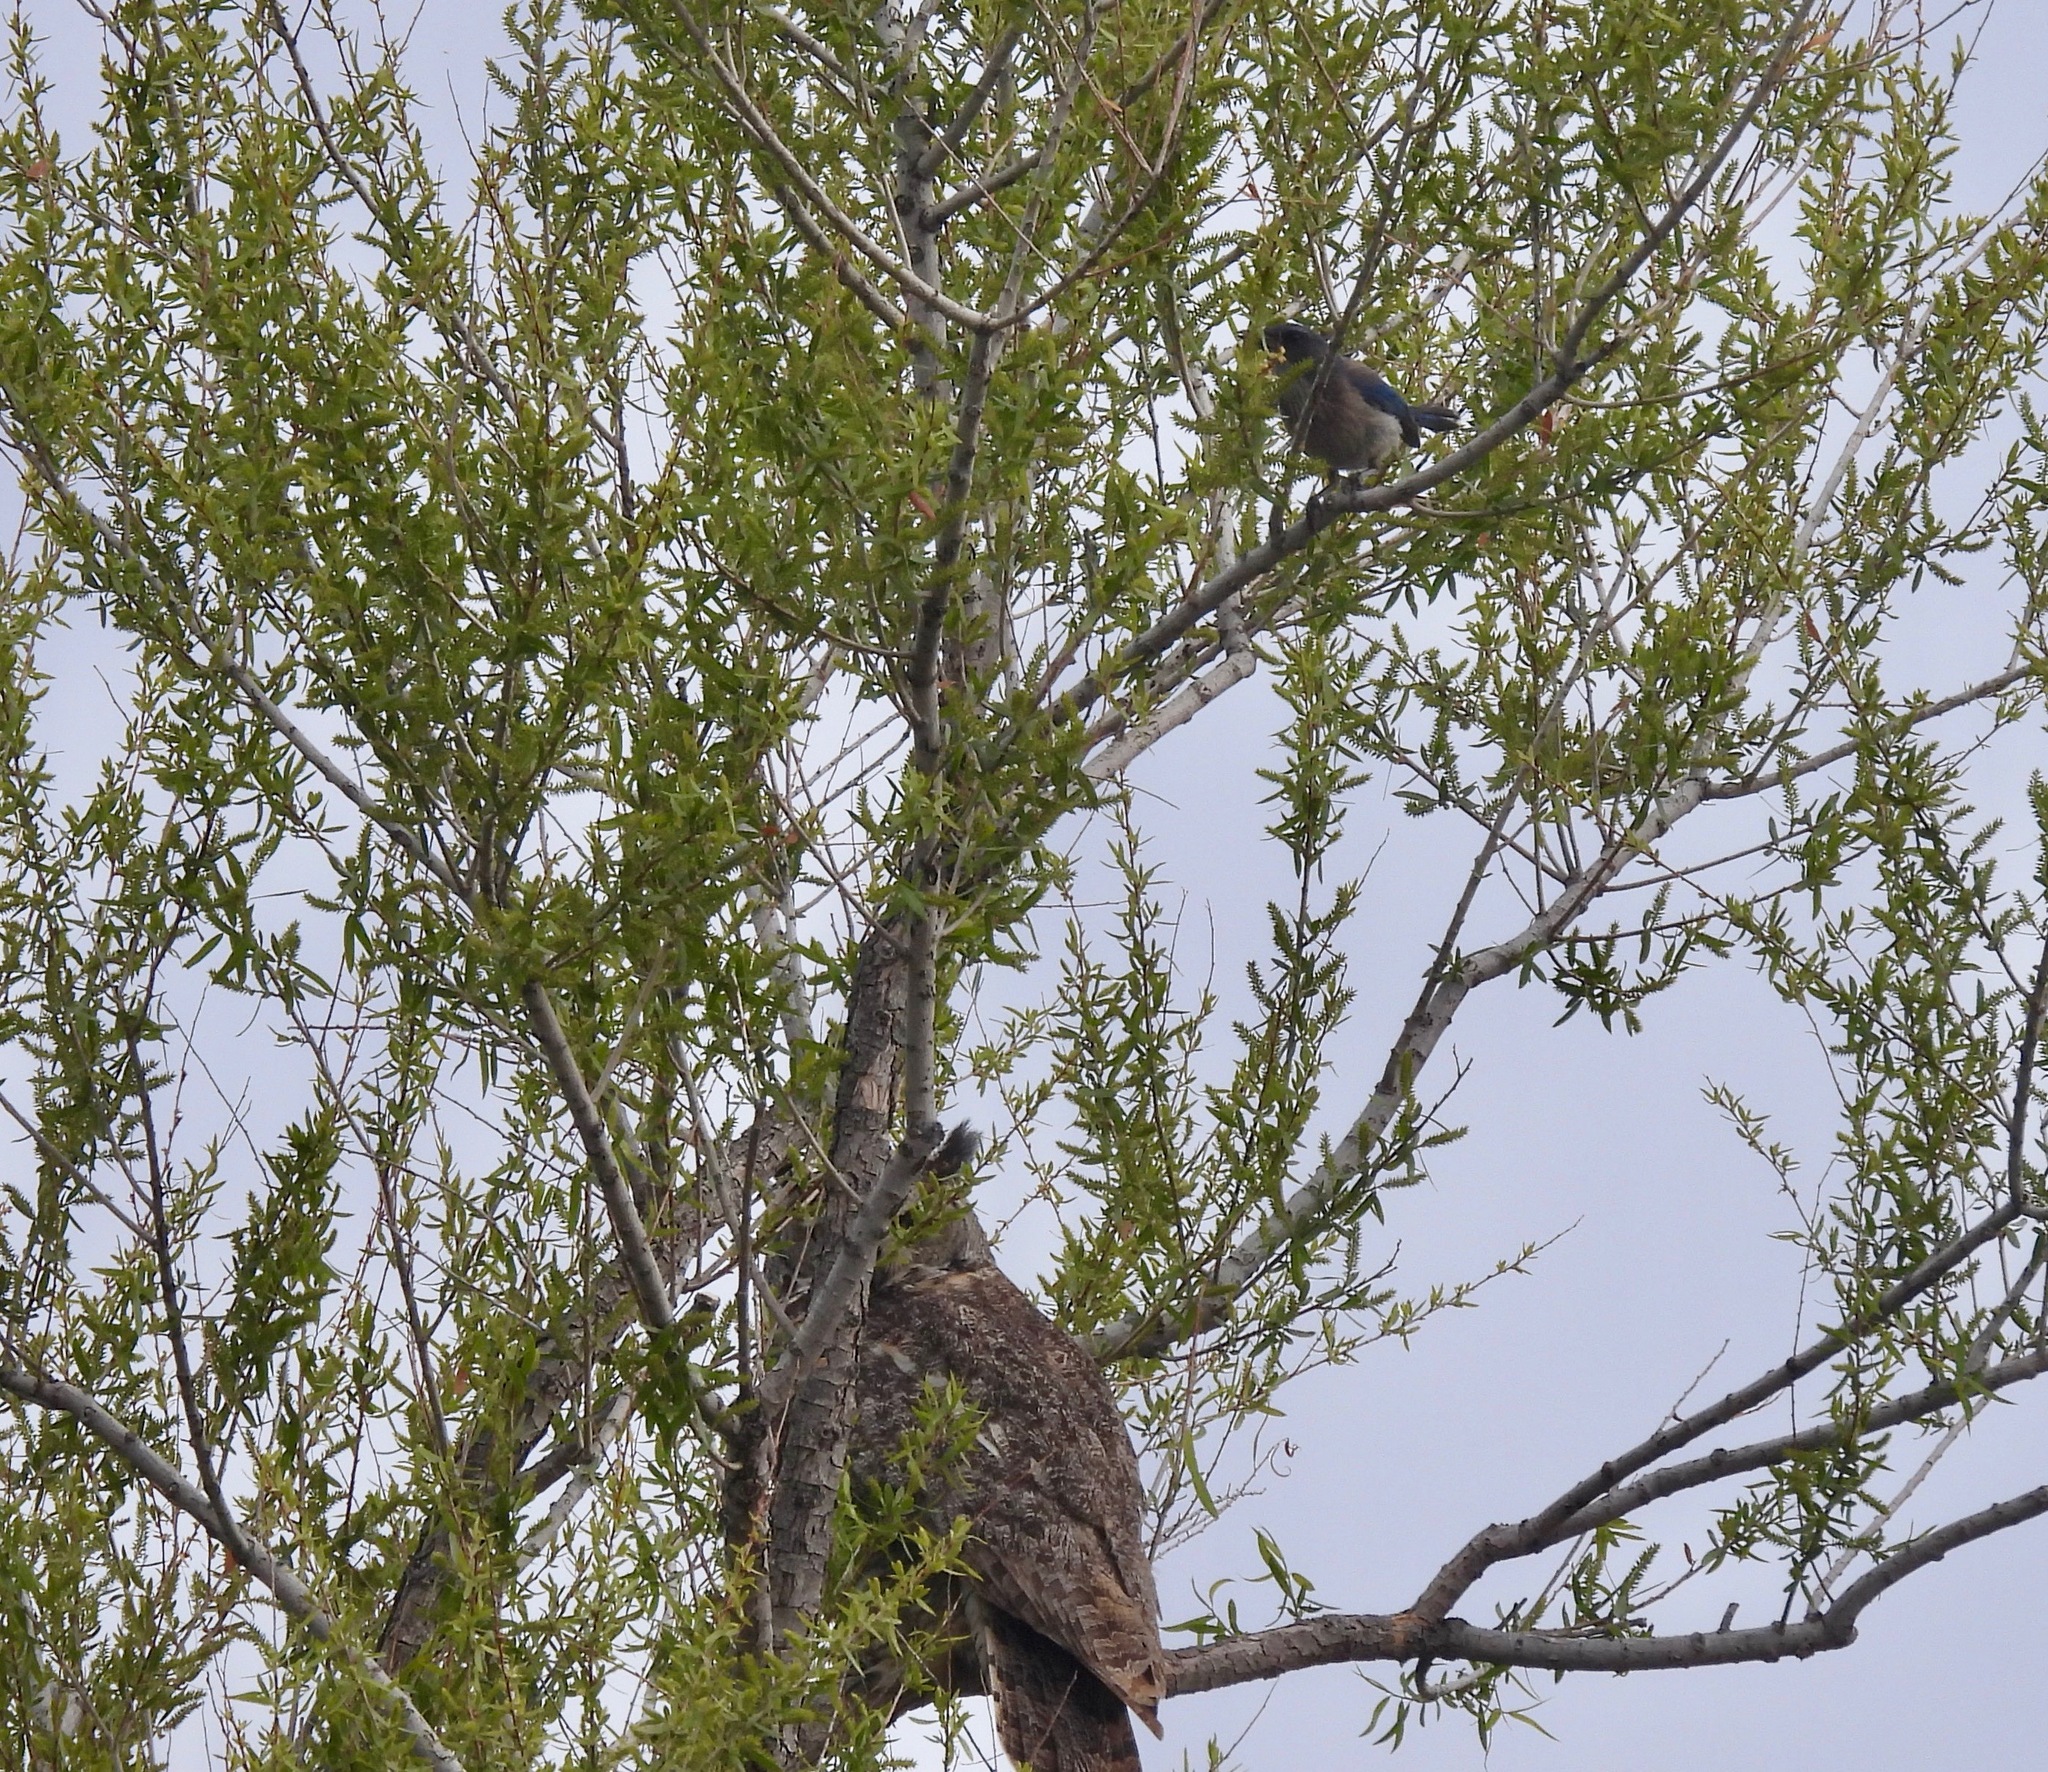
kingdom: Animalia
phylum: Chordata
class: Aves
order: Passeriformes
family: Corvidae
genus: Aphelocoma
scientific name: Aphelocoma woodhouseii
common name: Woodhouse's scrub-jay
